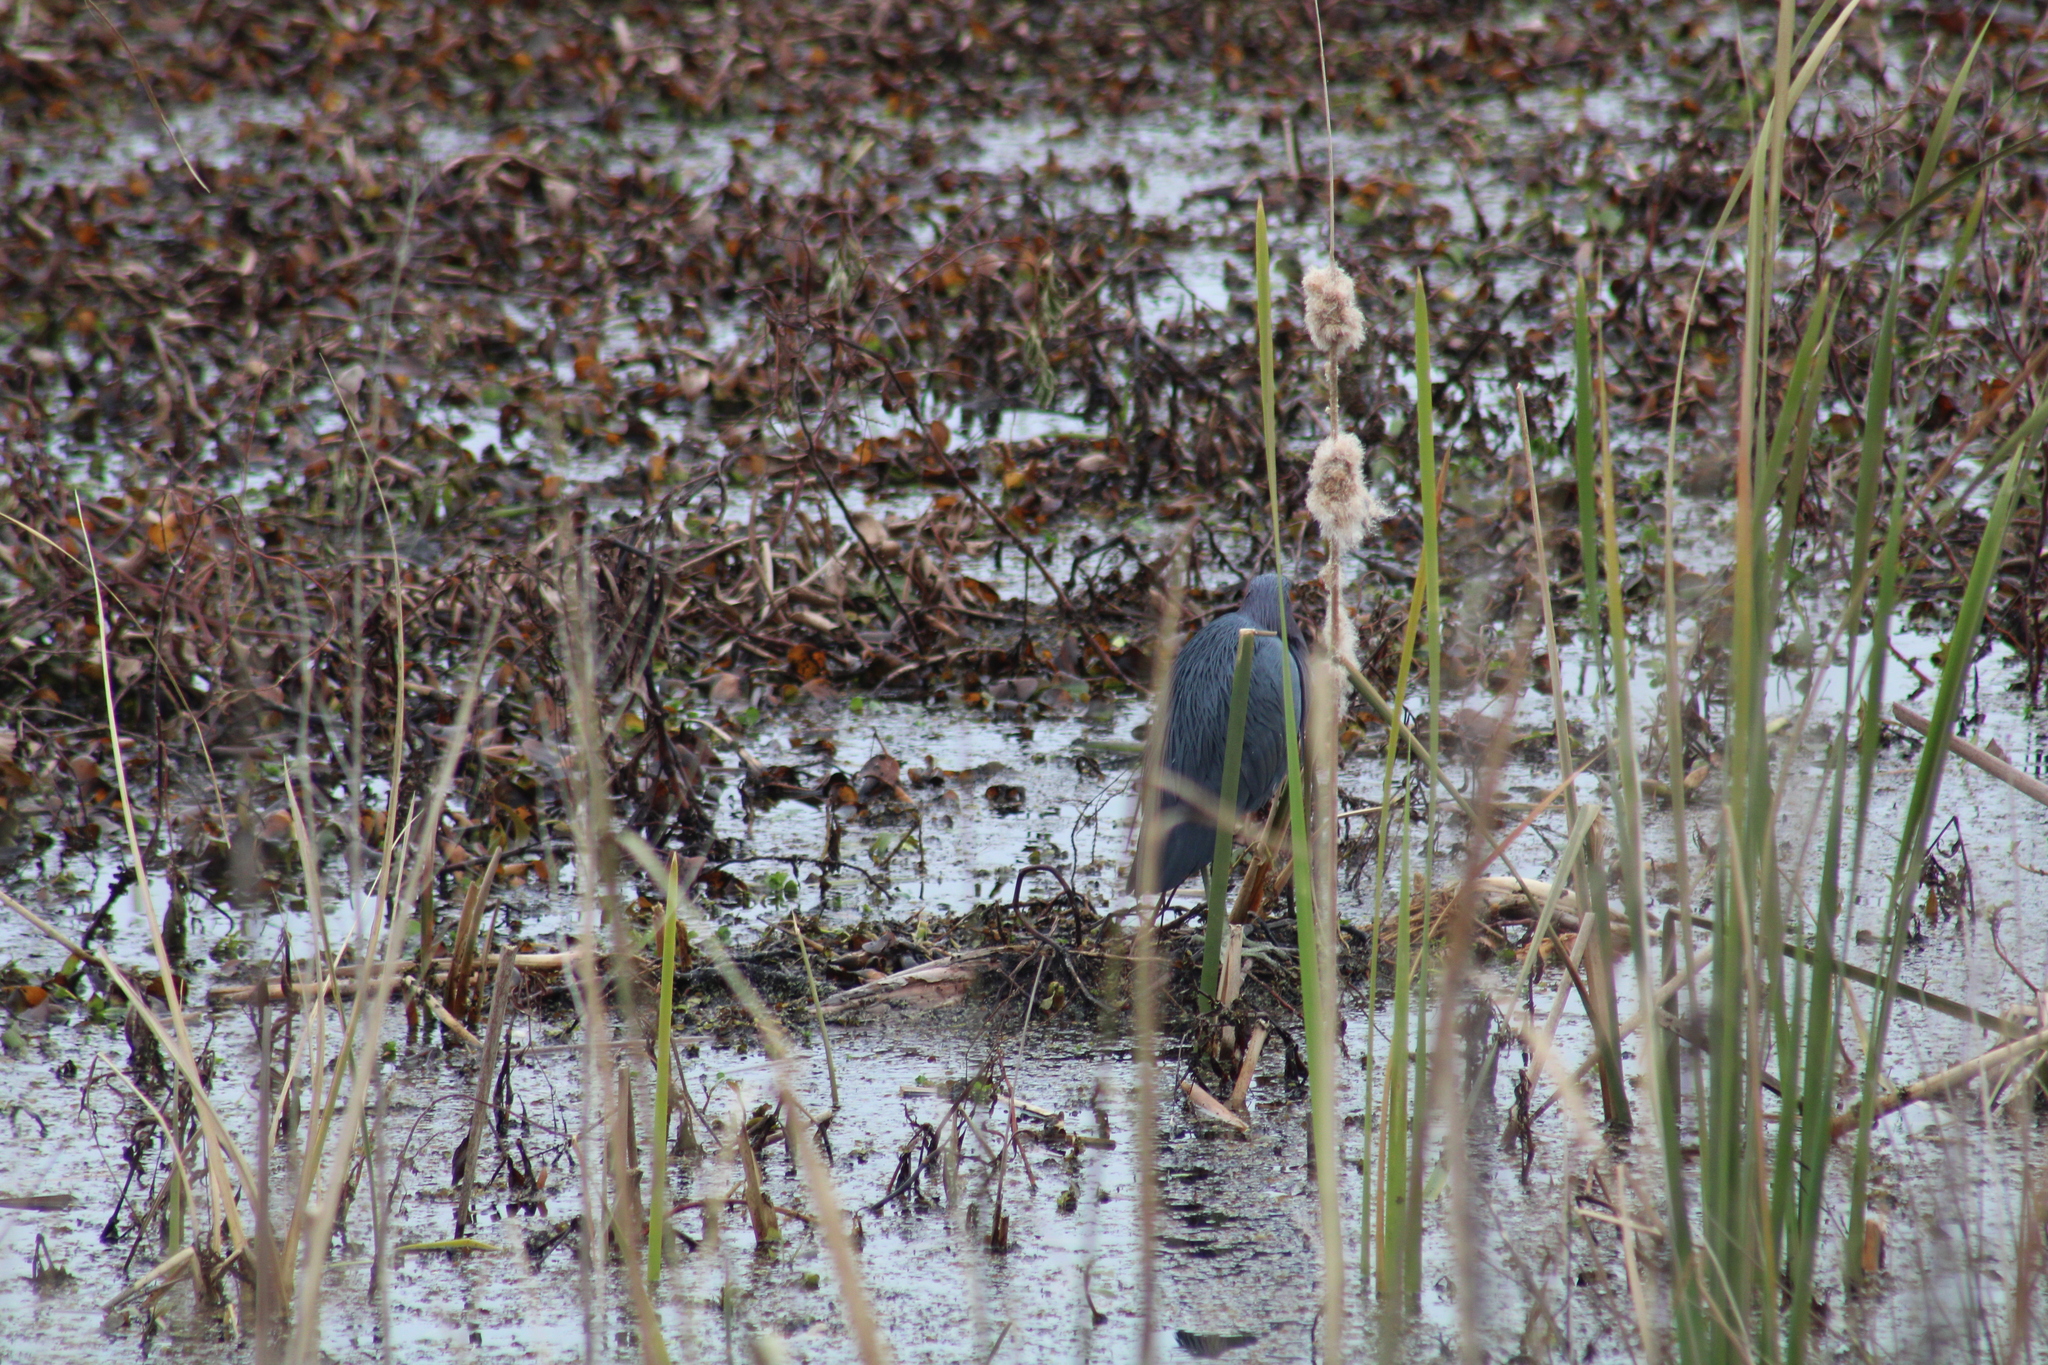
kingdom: Animalia
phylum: Chordata
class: Aves
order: Pelecaniformes
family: Ardeidae
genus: Egretta
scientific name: Egretta caerulea
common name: Little blue heron
